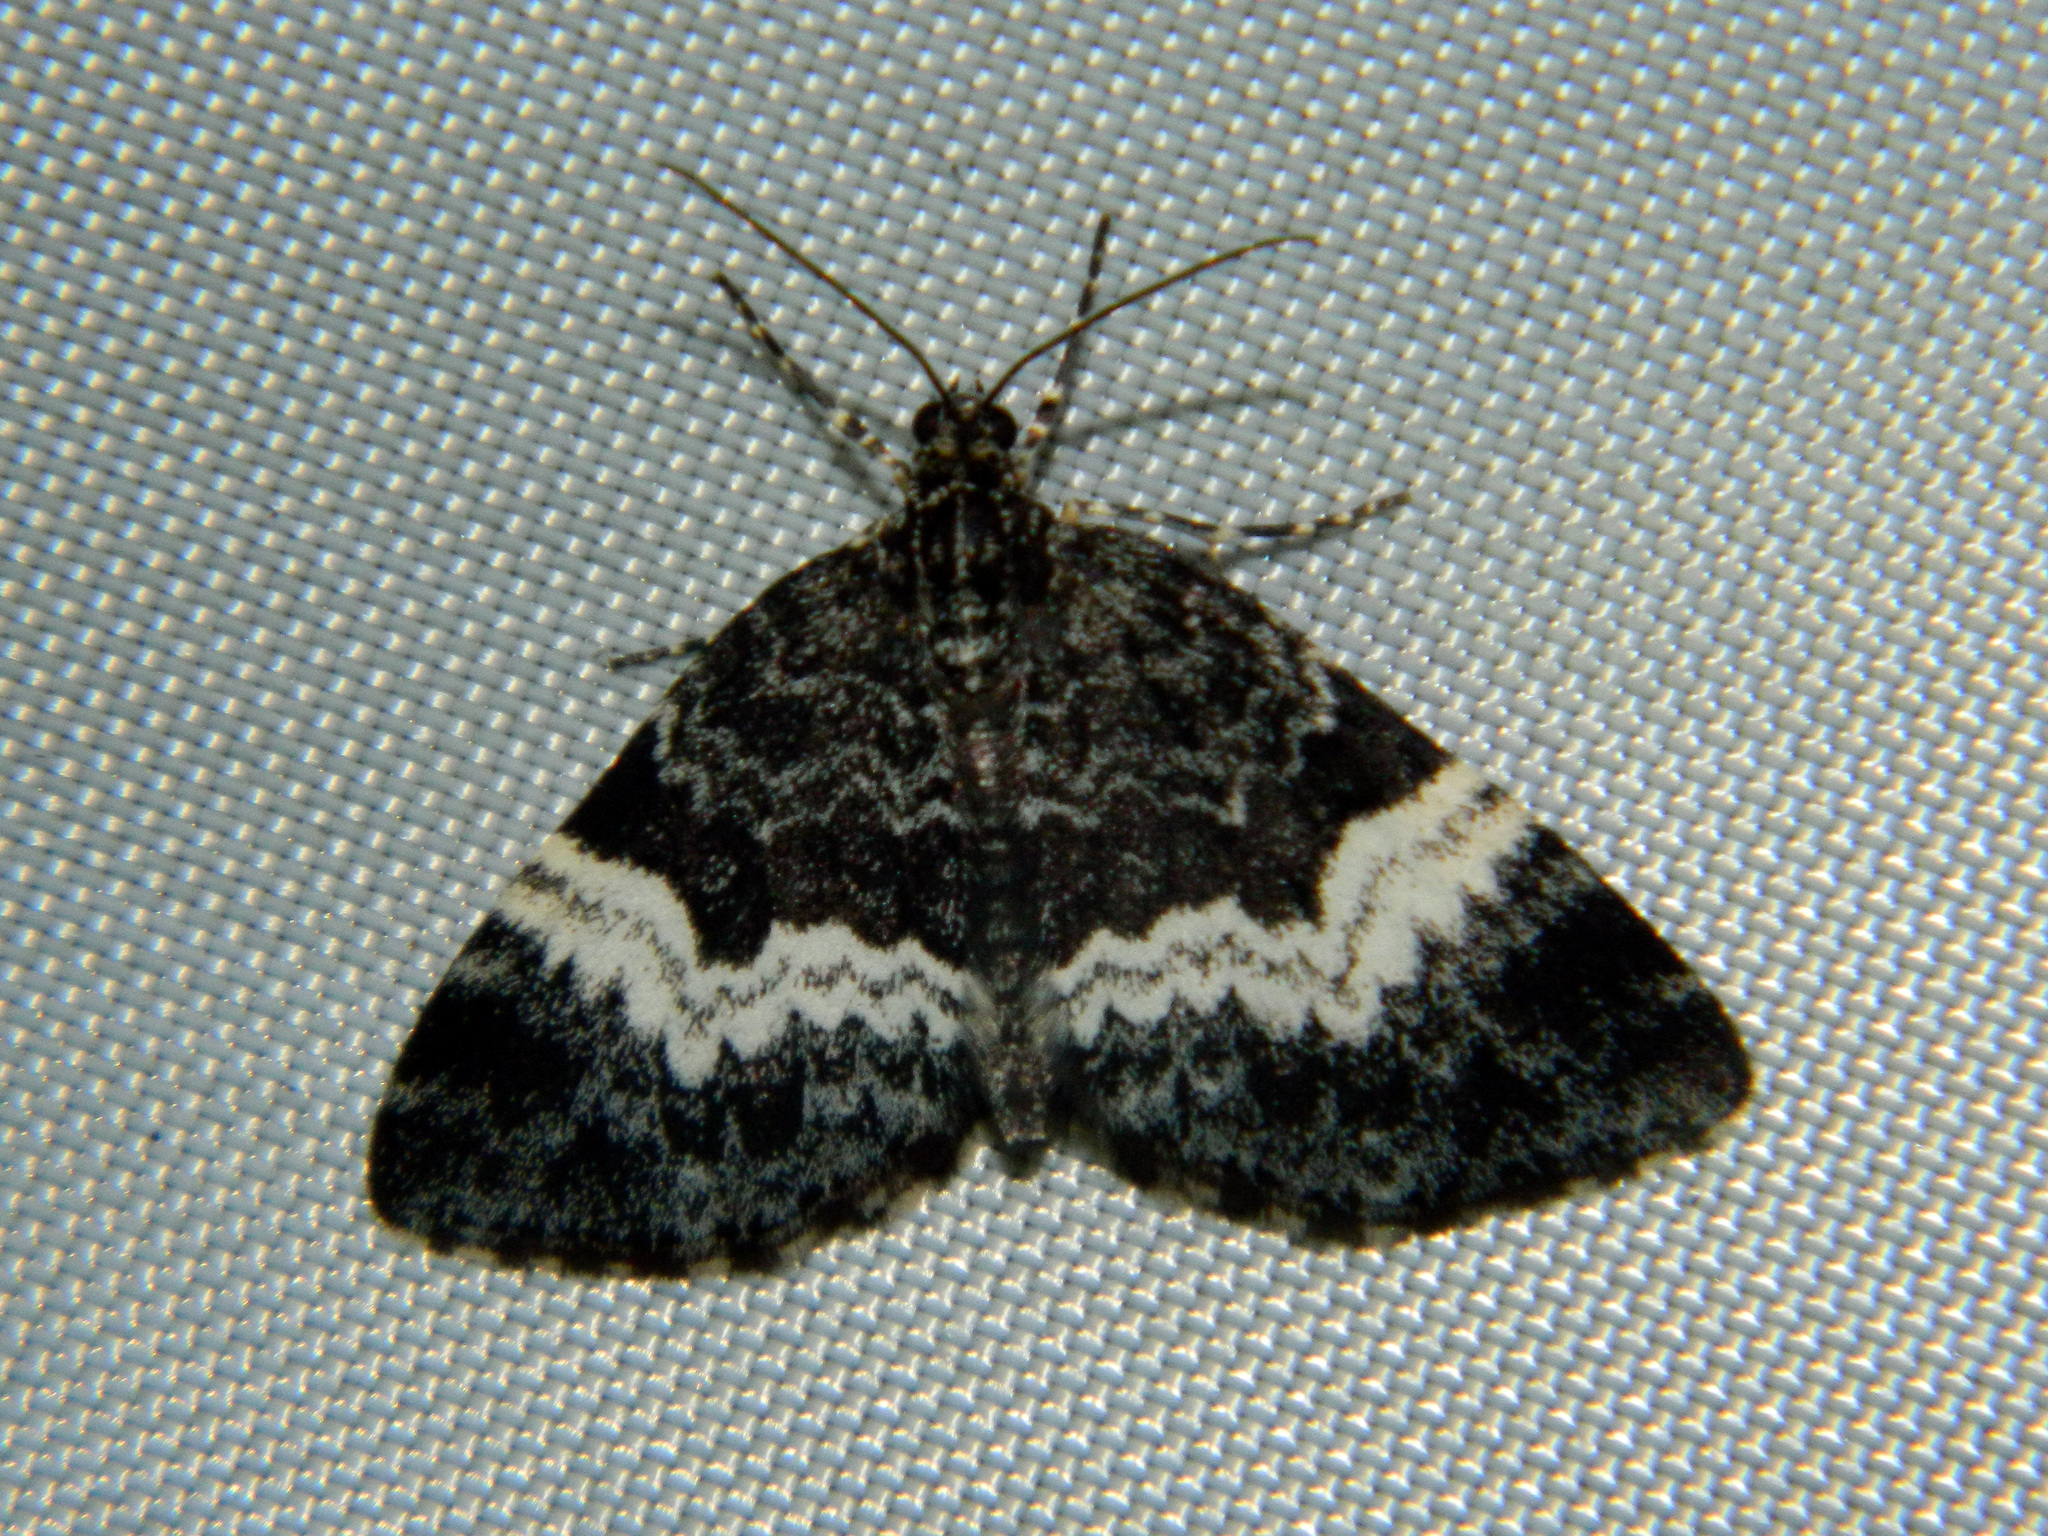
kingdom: Animalia
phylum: Arthropoda
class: Insecta
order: Lepidoptera
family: Geometridae
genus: Spargania
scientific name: Spargania luctuata
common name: White-banded carpet
